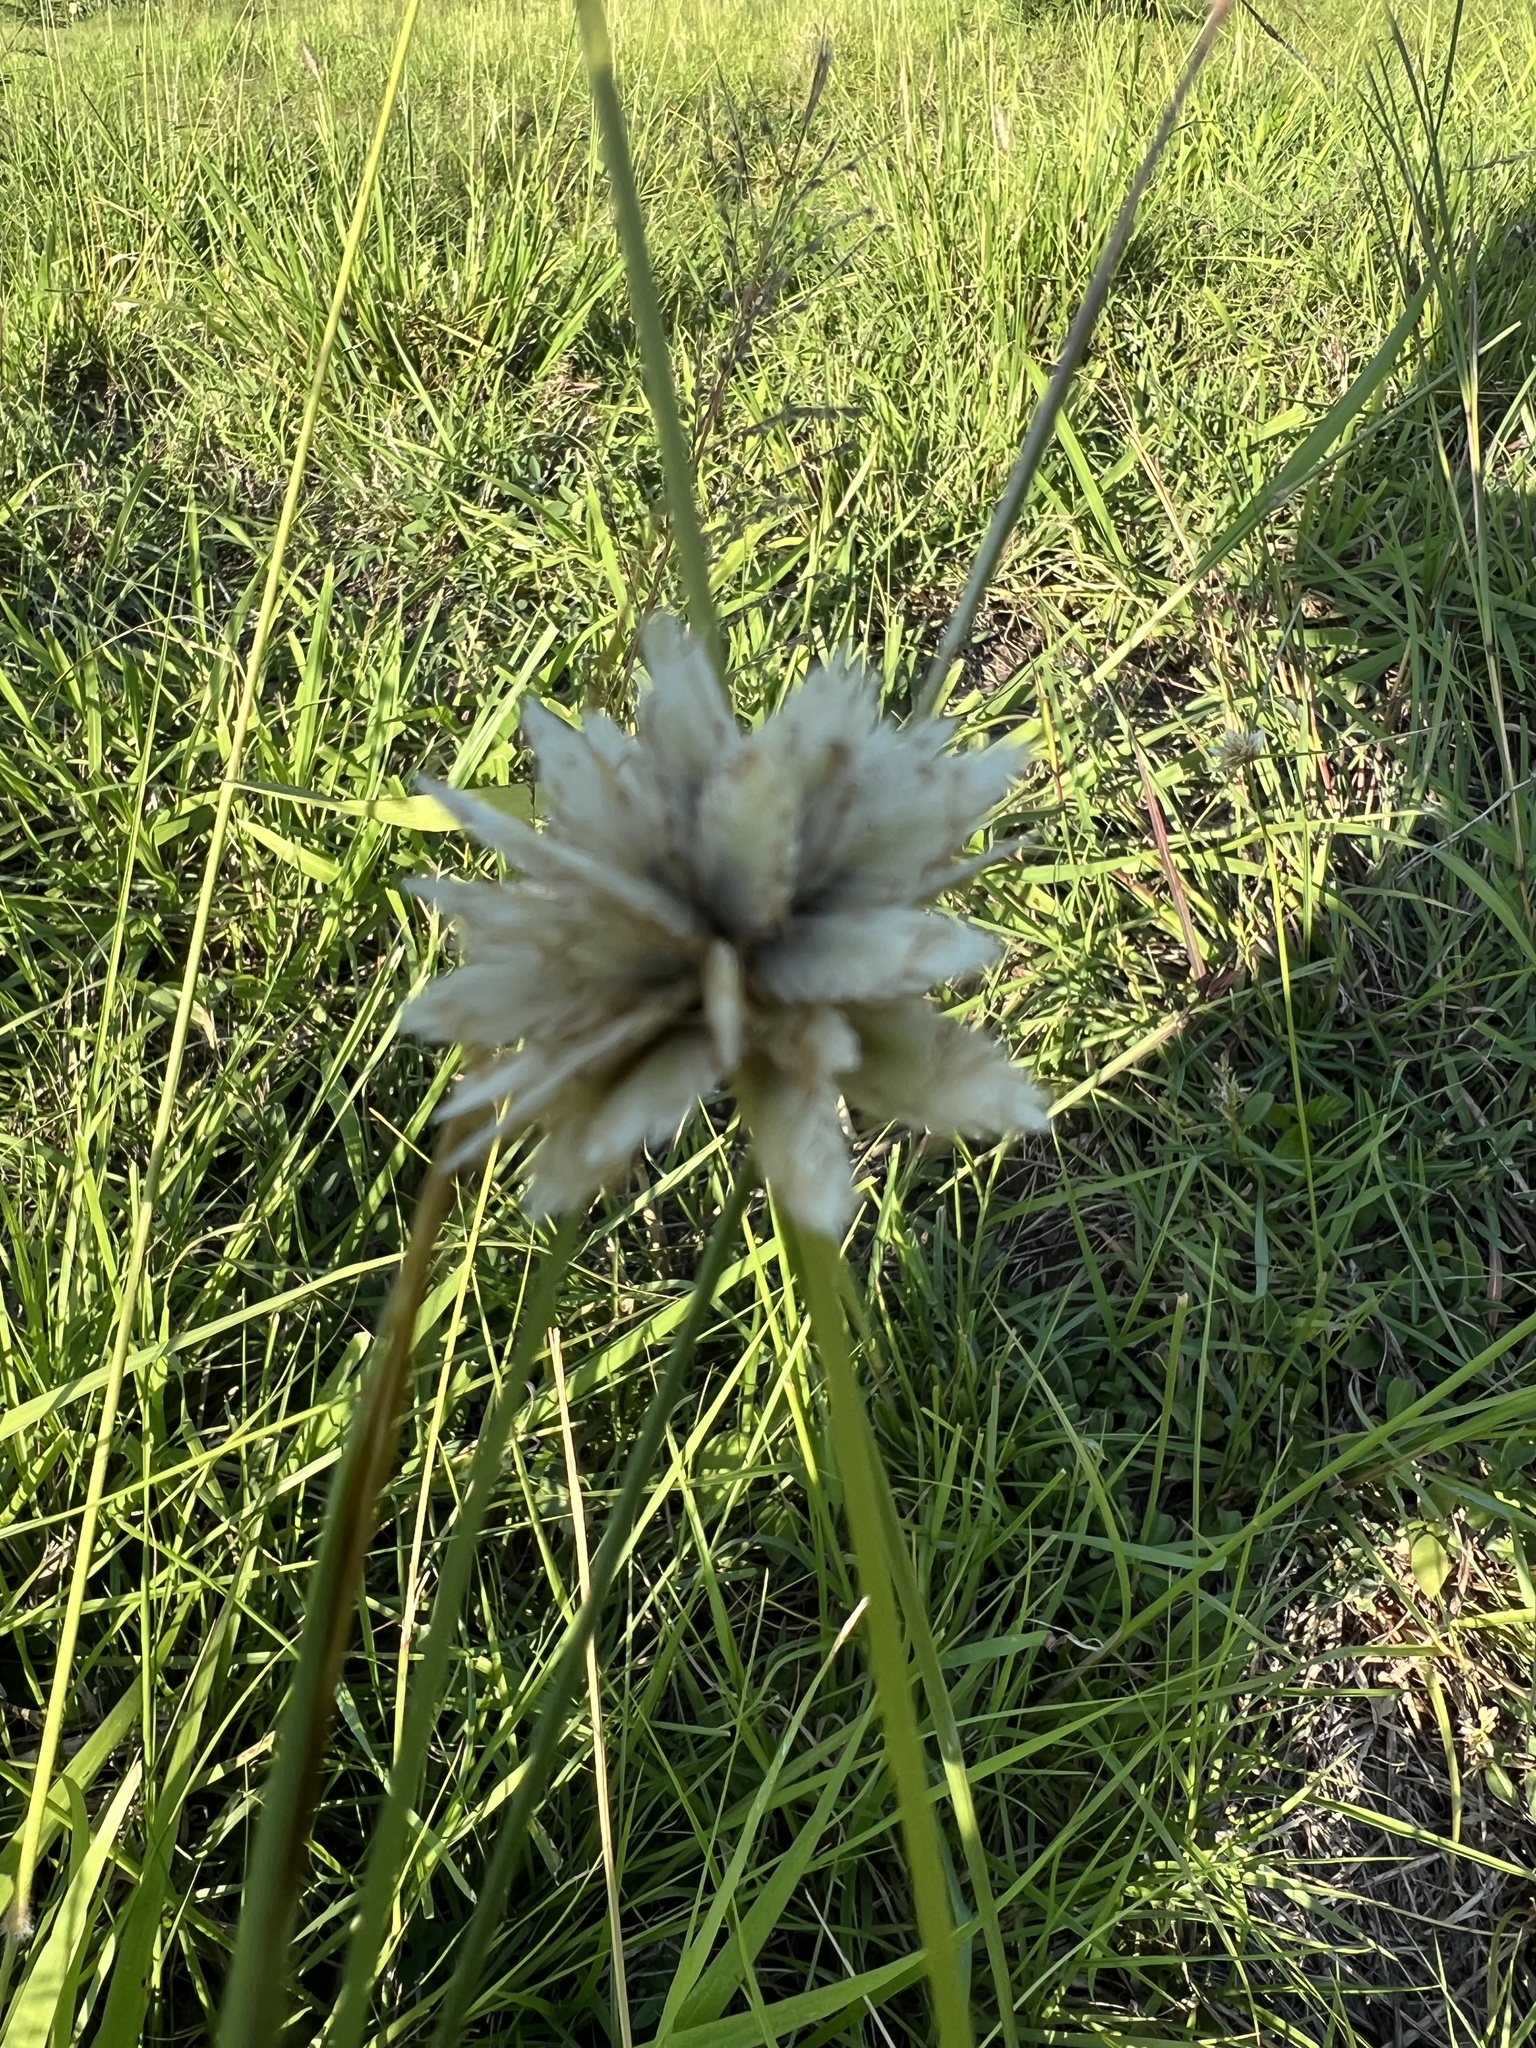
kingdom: Plantae
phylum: Tracheophyta
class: Magnoliopsida
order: Caryophyllales
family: Amaranthaceae
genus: Gomphrena
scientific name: Gomphrena celosioides
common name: Gomphrena-weed
